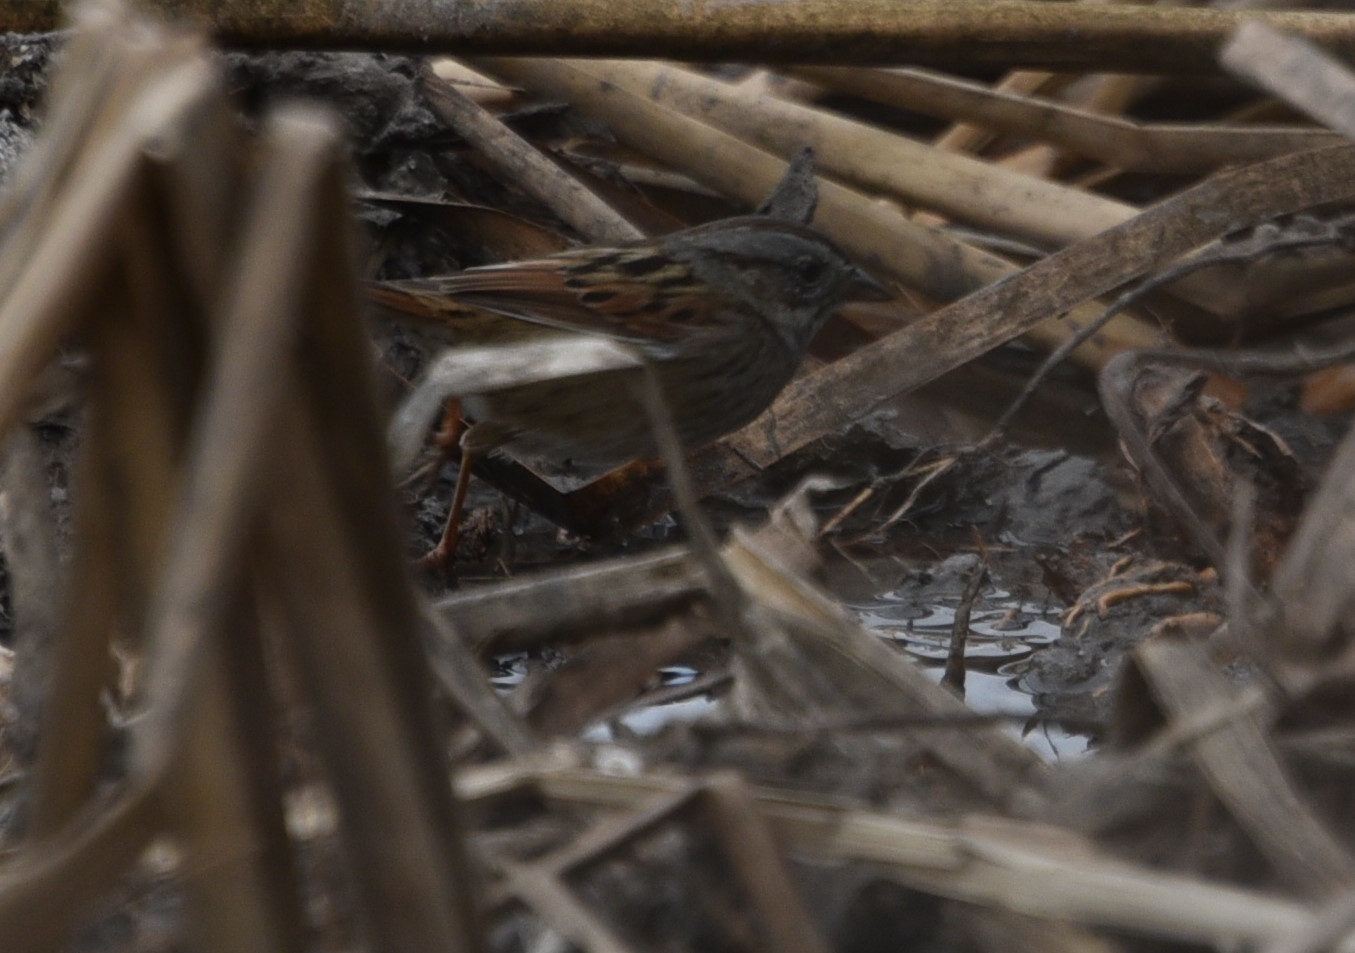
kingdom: Animalia
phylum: Chordata
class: Aves
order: Passeriformes
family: Passerellidae
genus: Melospiza
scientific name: Melospiza georgiana
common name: Swamp sparrow
